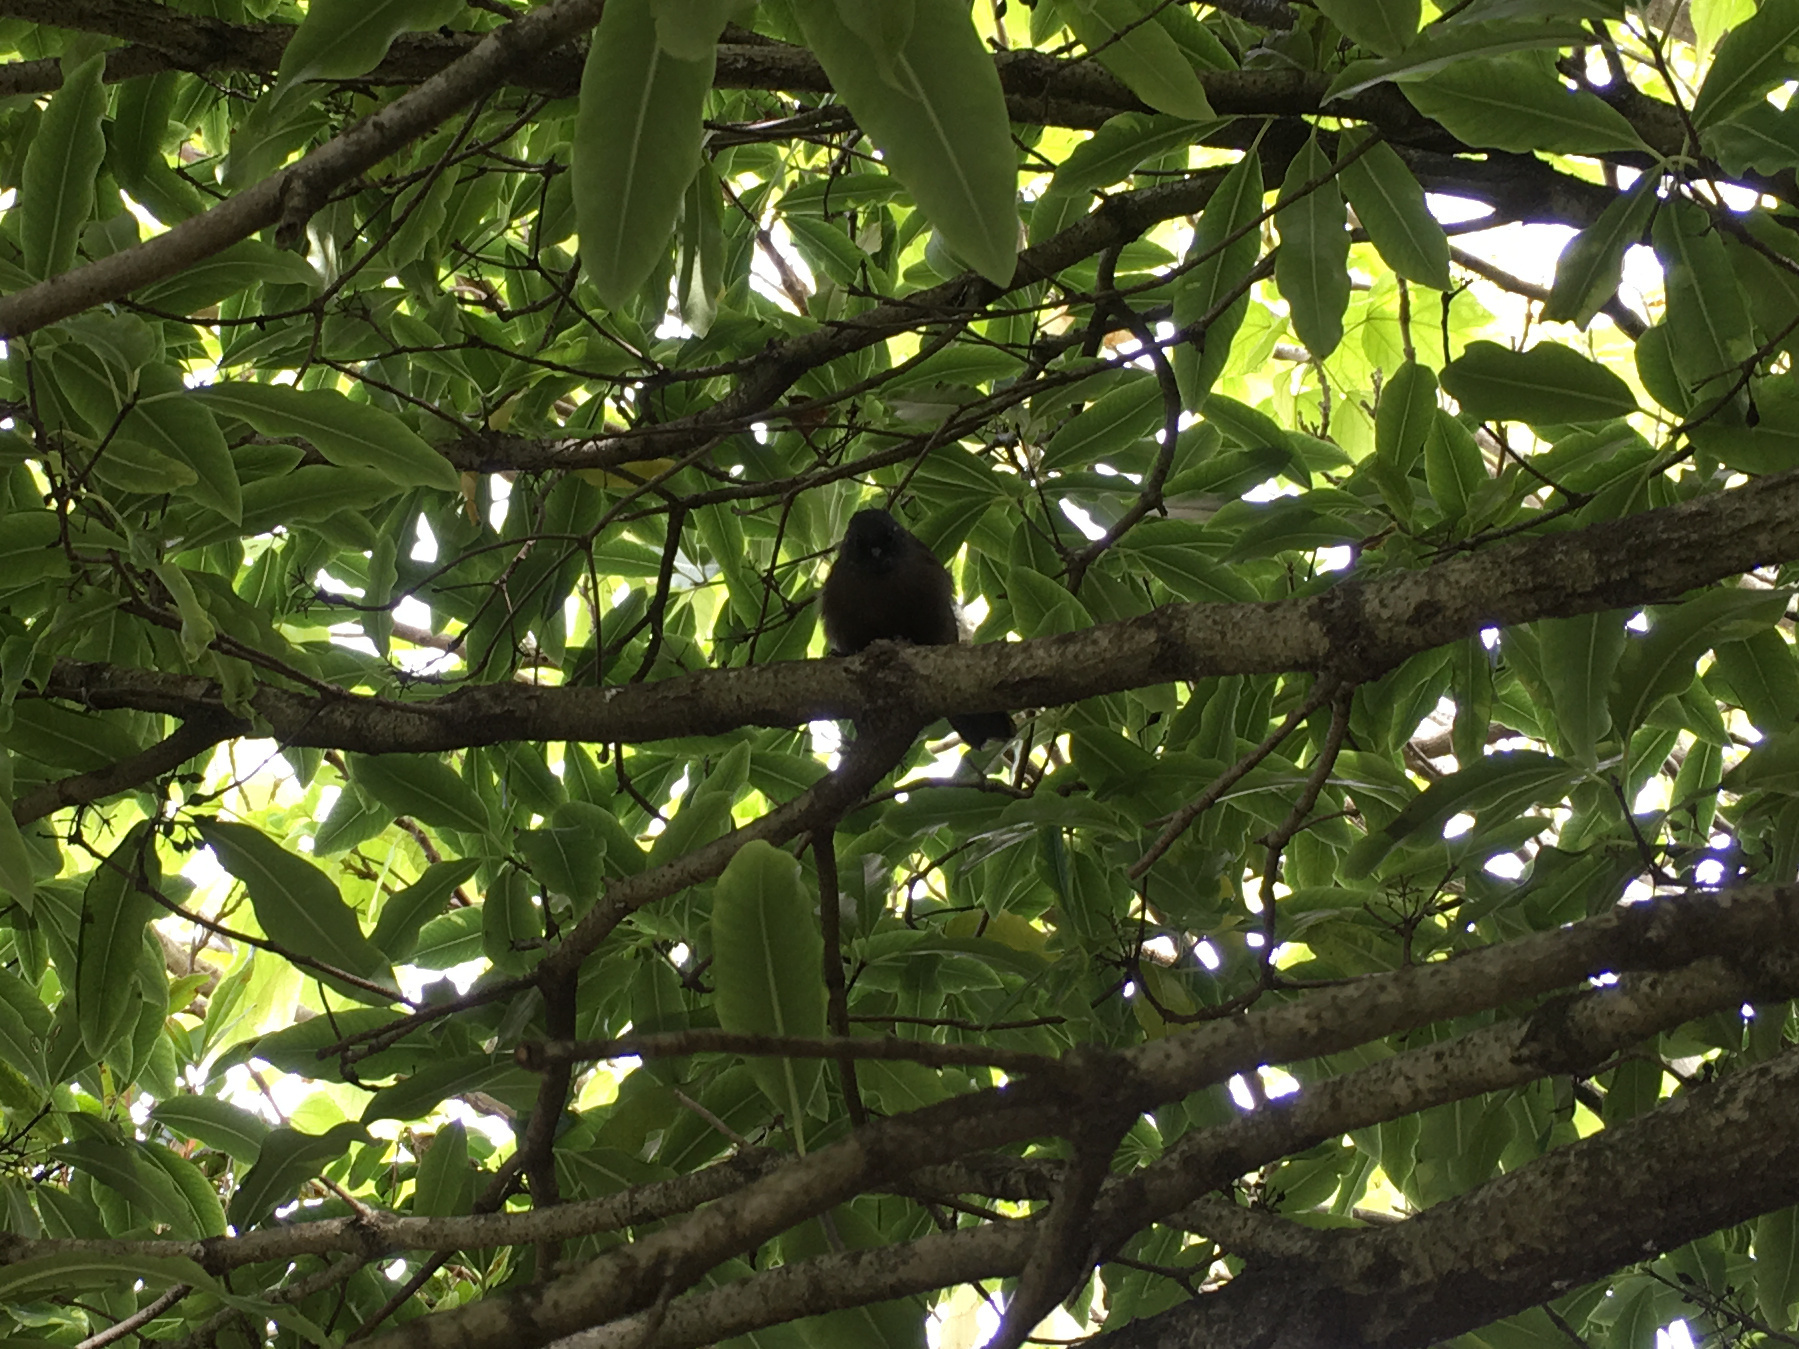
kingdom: Animalia
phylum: Chordata
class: Aves
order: Passeriformes
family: Rhipiduridae
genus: Rhipidura
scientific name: Rhipidura fuliginosa
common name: New zealand fantail
